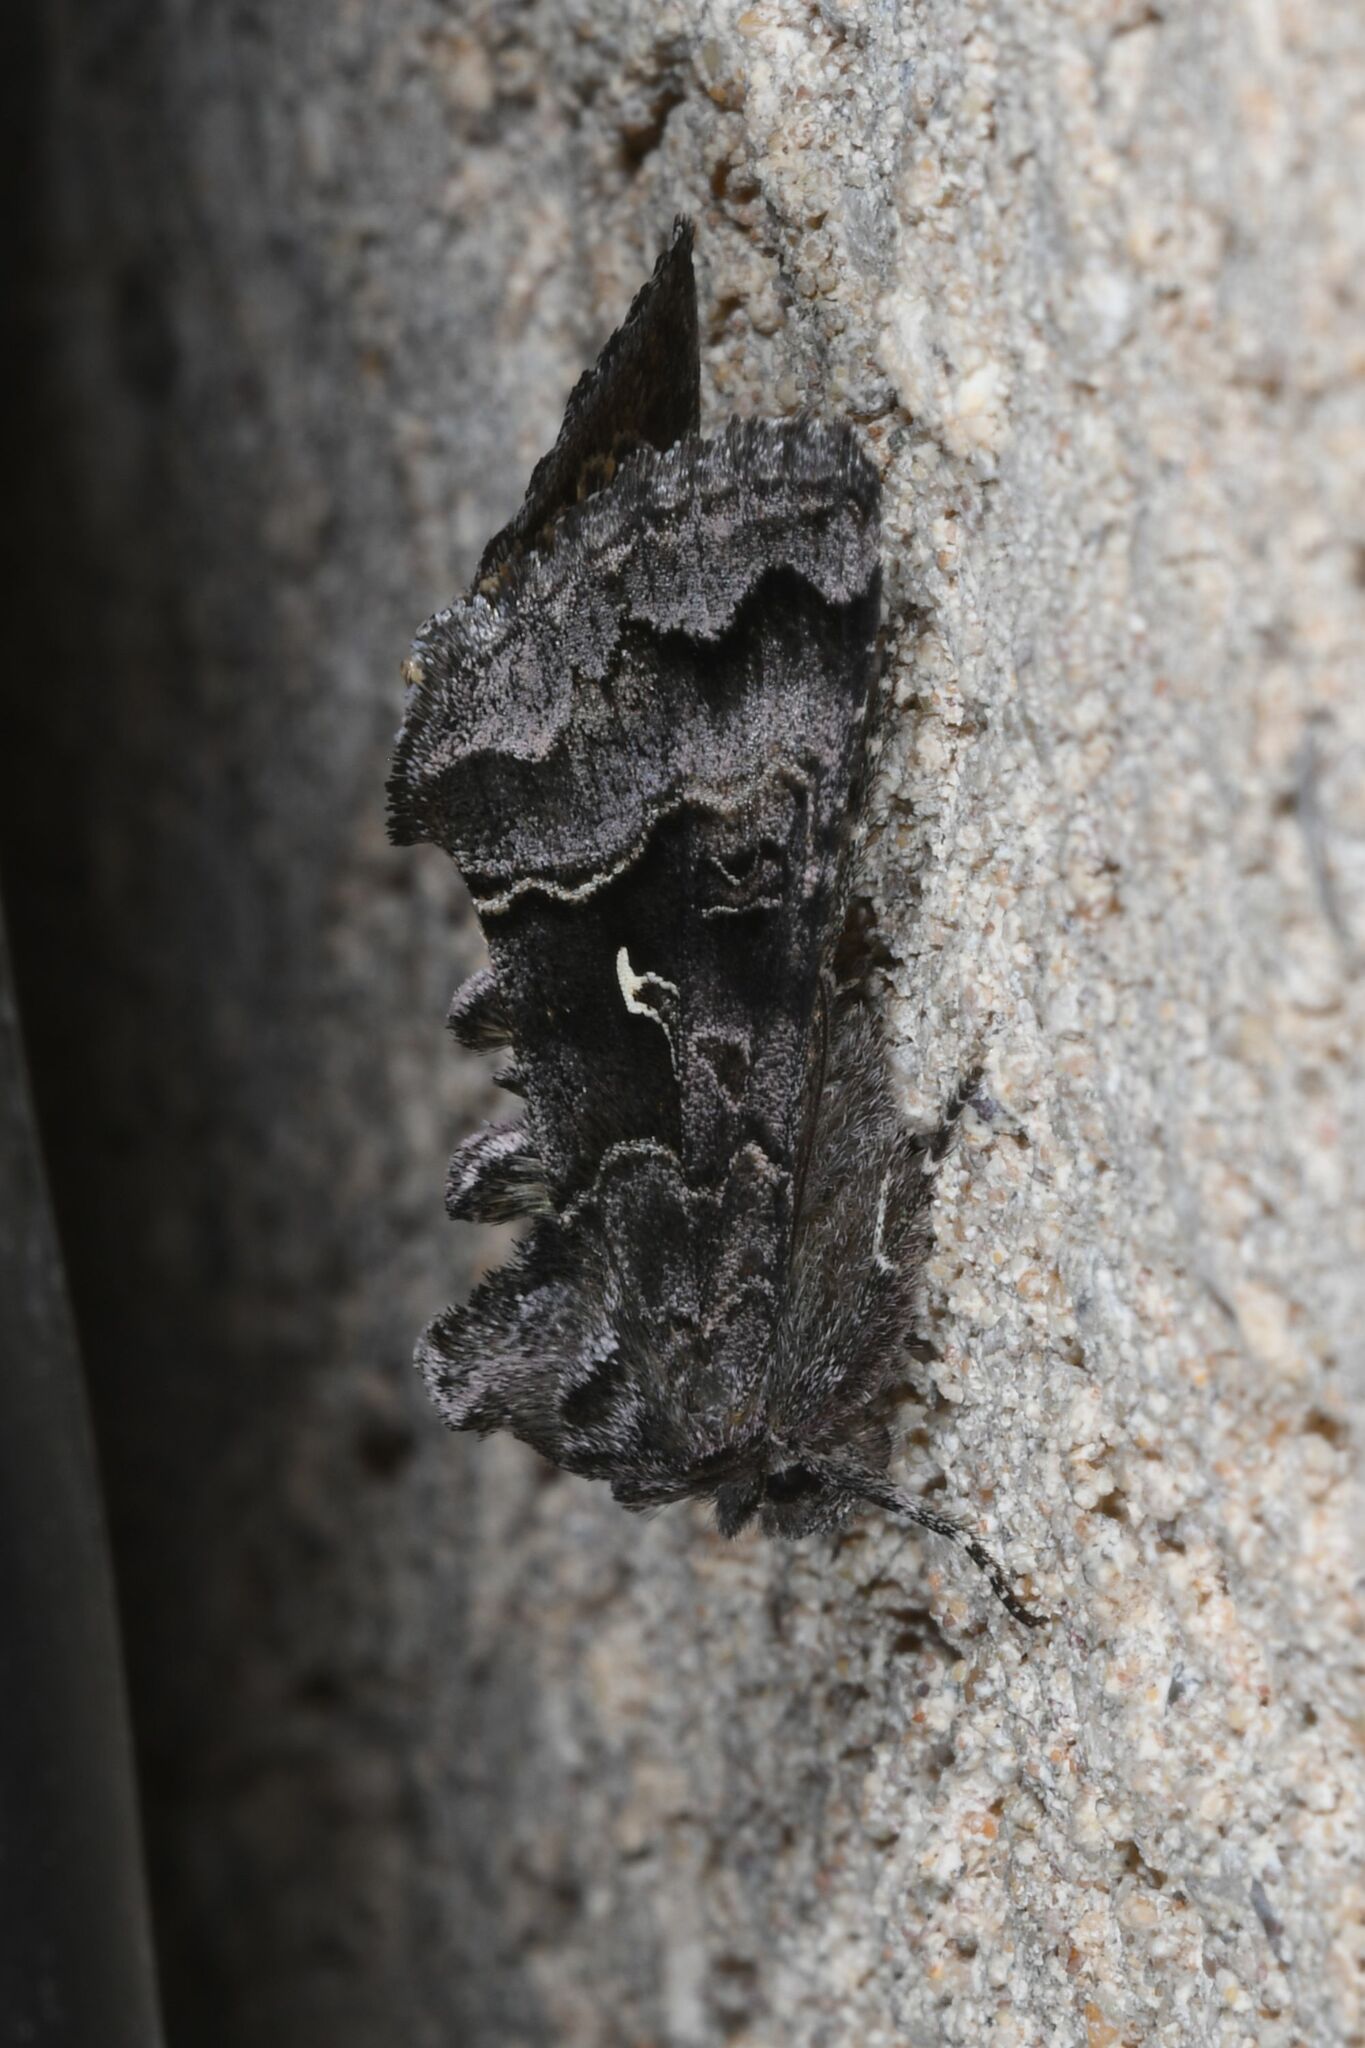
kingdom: Animalia
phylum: Arthropoda
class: Insecta
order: Lepidoptera
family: Noctuidae
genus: Syngrapha
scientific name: Syngrapha ain
